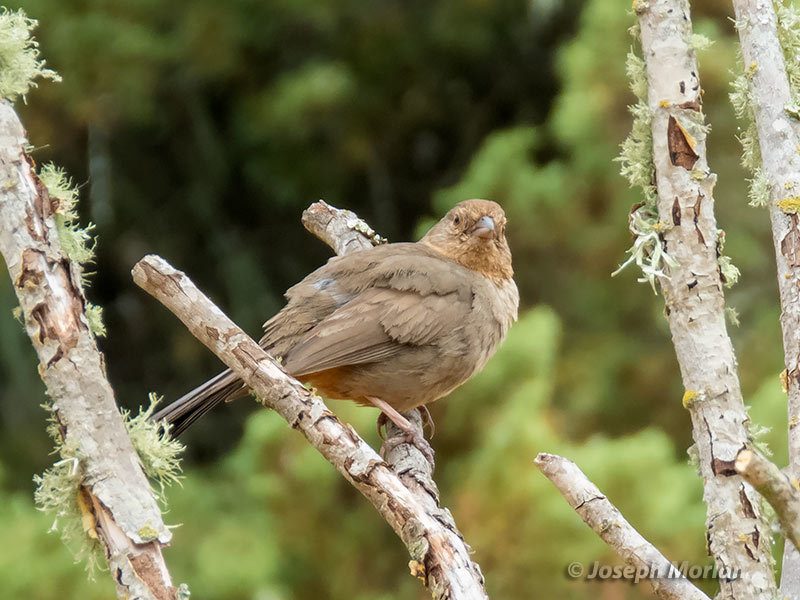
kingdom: Animalia
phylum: Chordata
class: Aves
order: Passeriformes
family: Passerellidae
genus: Melozone
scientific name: Melozone crissalis
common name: California towhee
